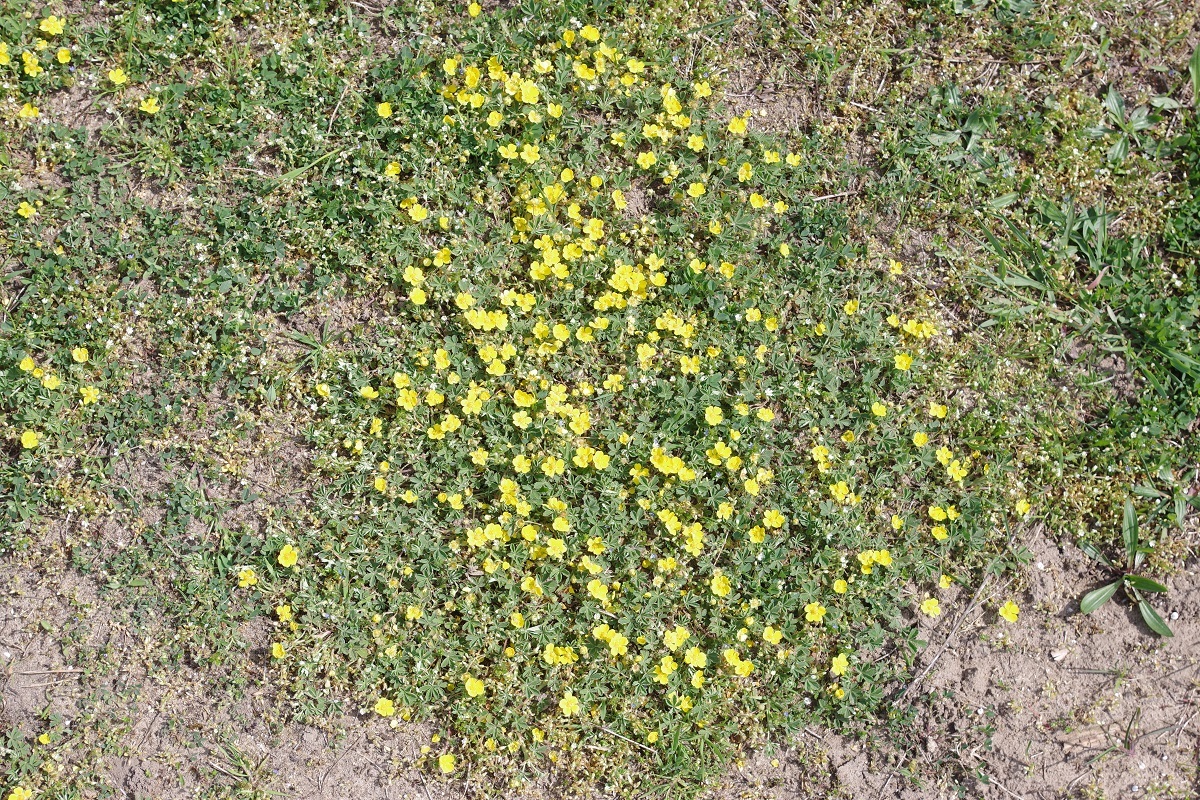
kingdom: Plantae
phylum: Tracheophyta
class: Magnoliopsida
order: Rosales
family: Rosaceae
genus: Potentilla
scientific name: Potentilla incana
